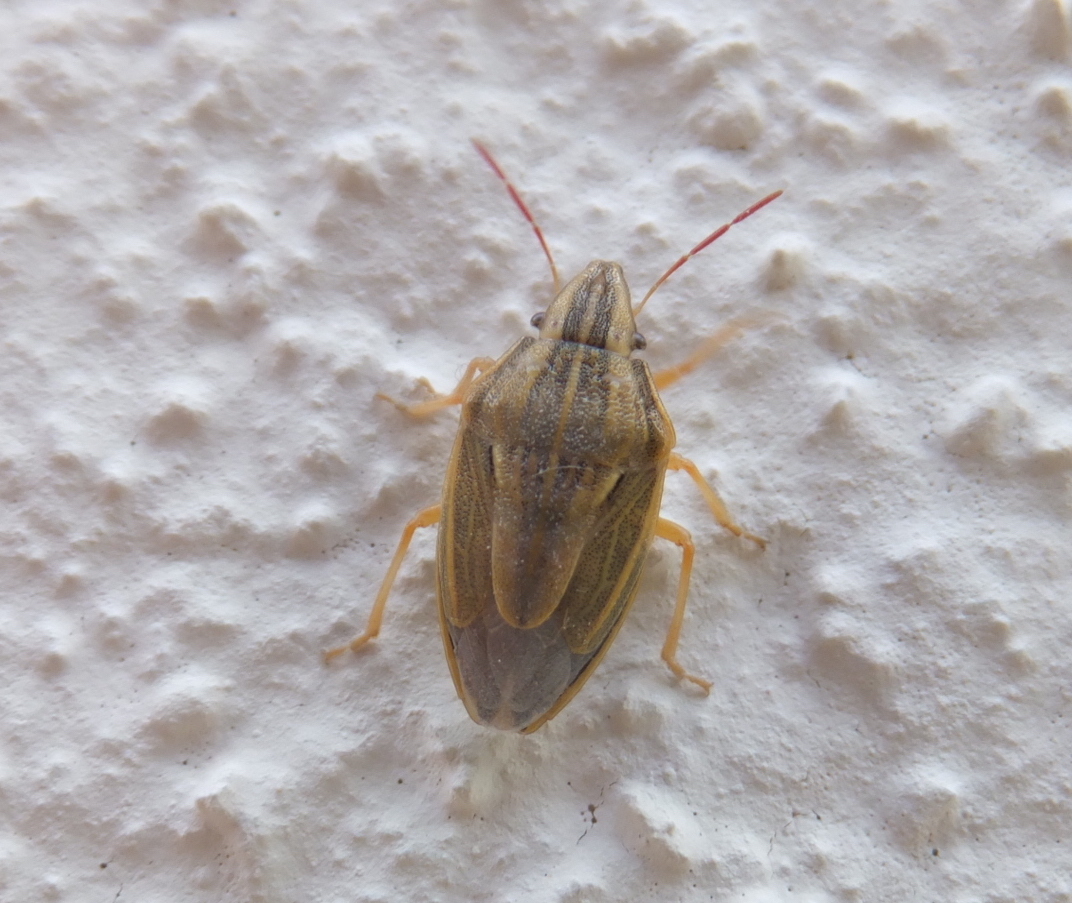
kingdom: Animalia
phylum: Arthropoda
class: Insecta
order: Hemiptera
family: Pentatomidae
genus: Aelia
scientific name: Aelia acuminata
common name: Bishop's mitre
